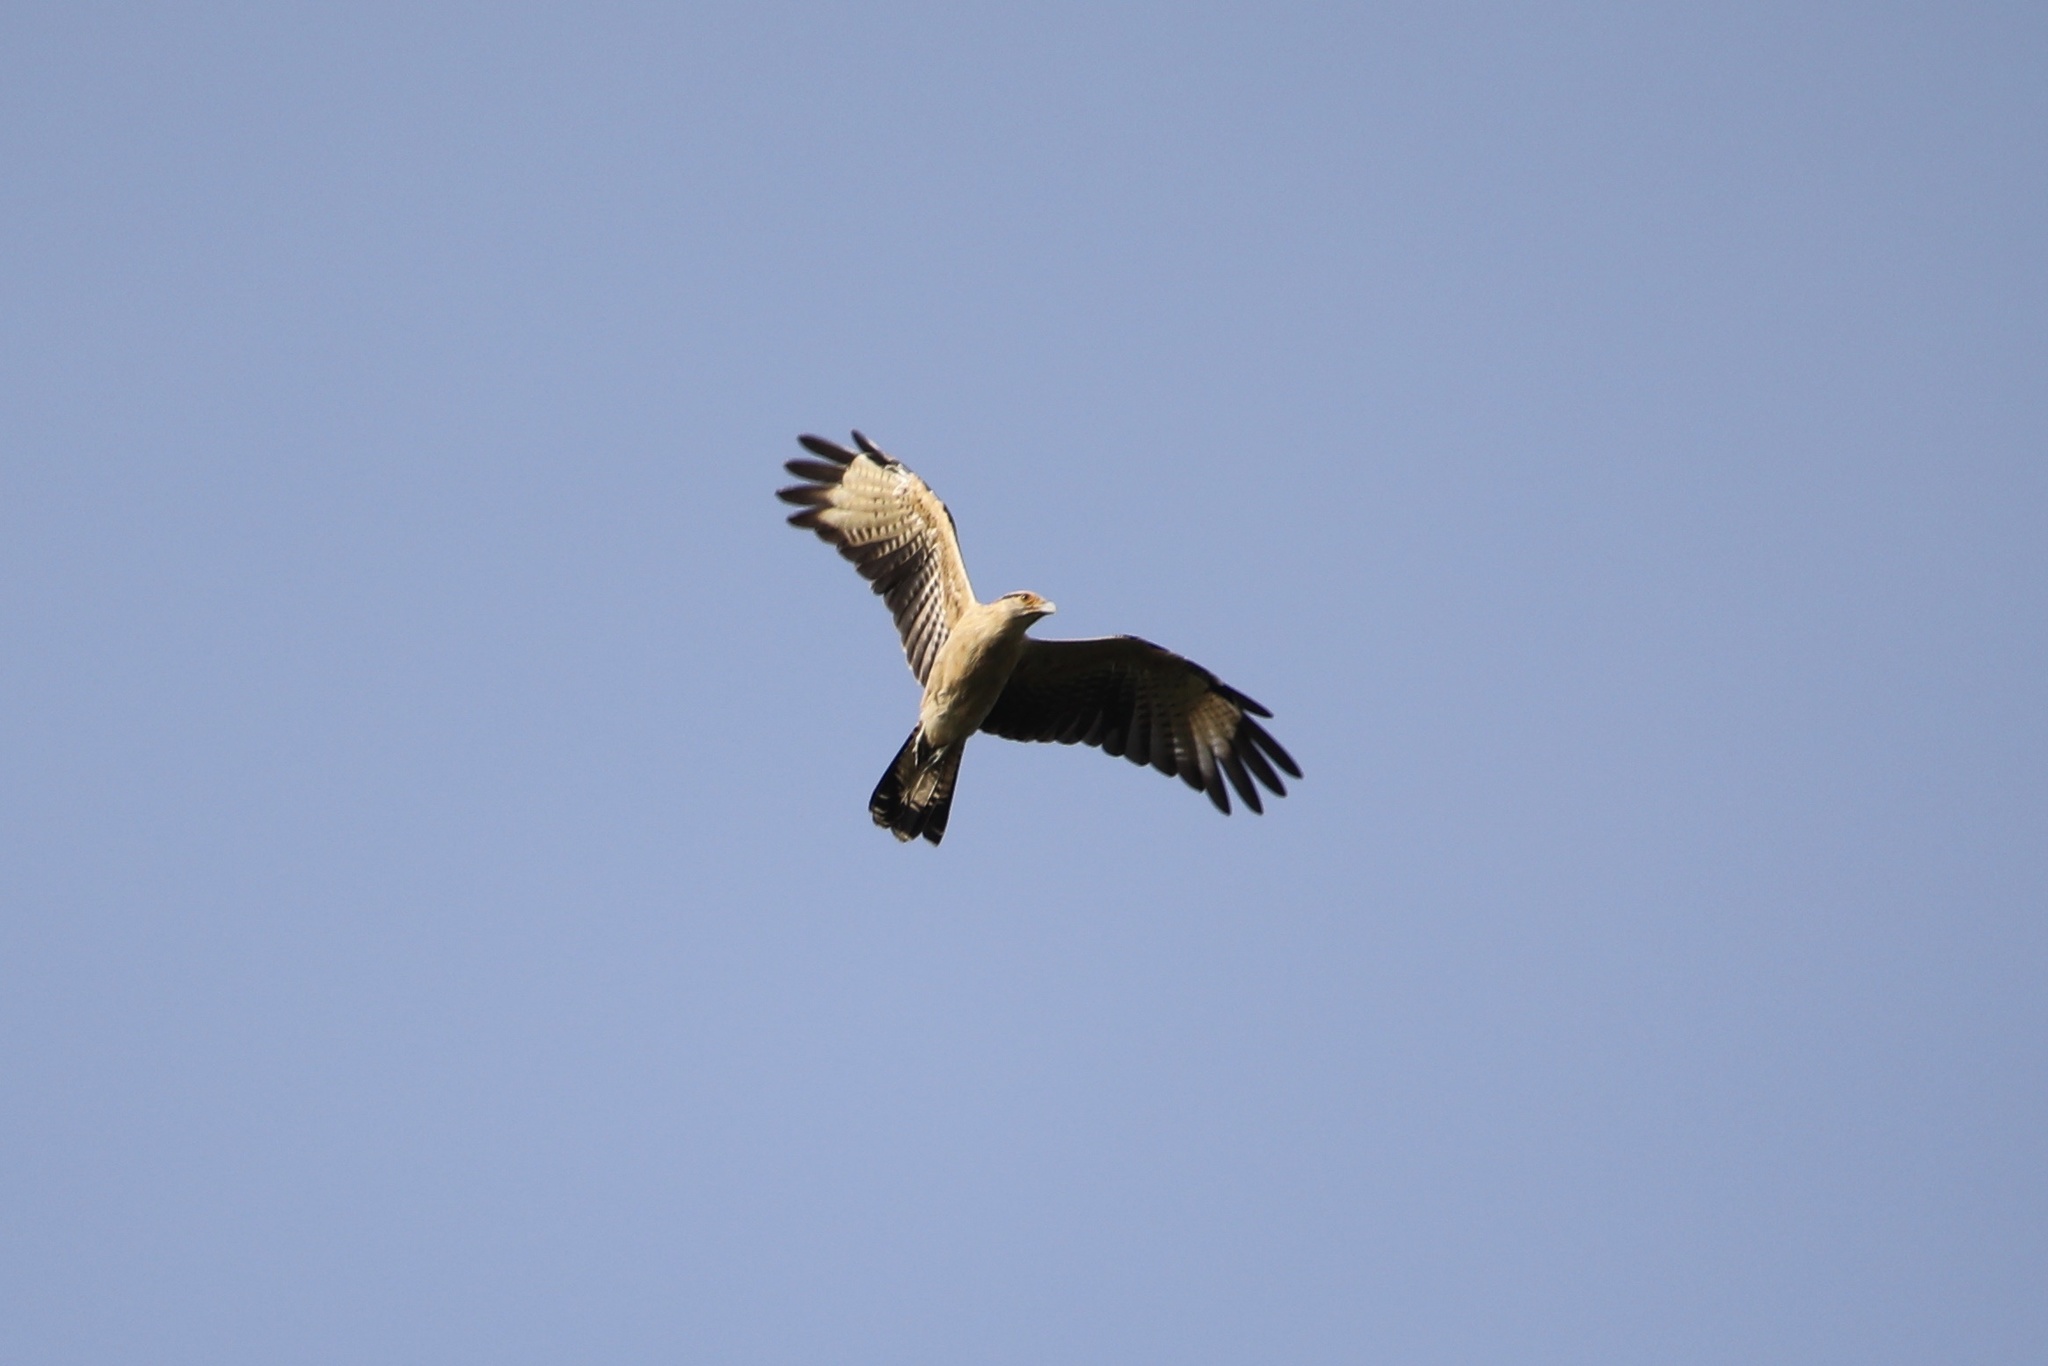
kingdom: Animalia
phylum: Chordata
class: Aves
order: Falconiformes
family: Falconidae
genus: Daptrius
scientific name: Daptrius
